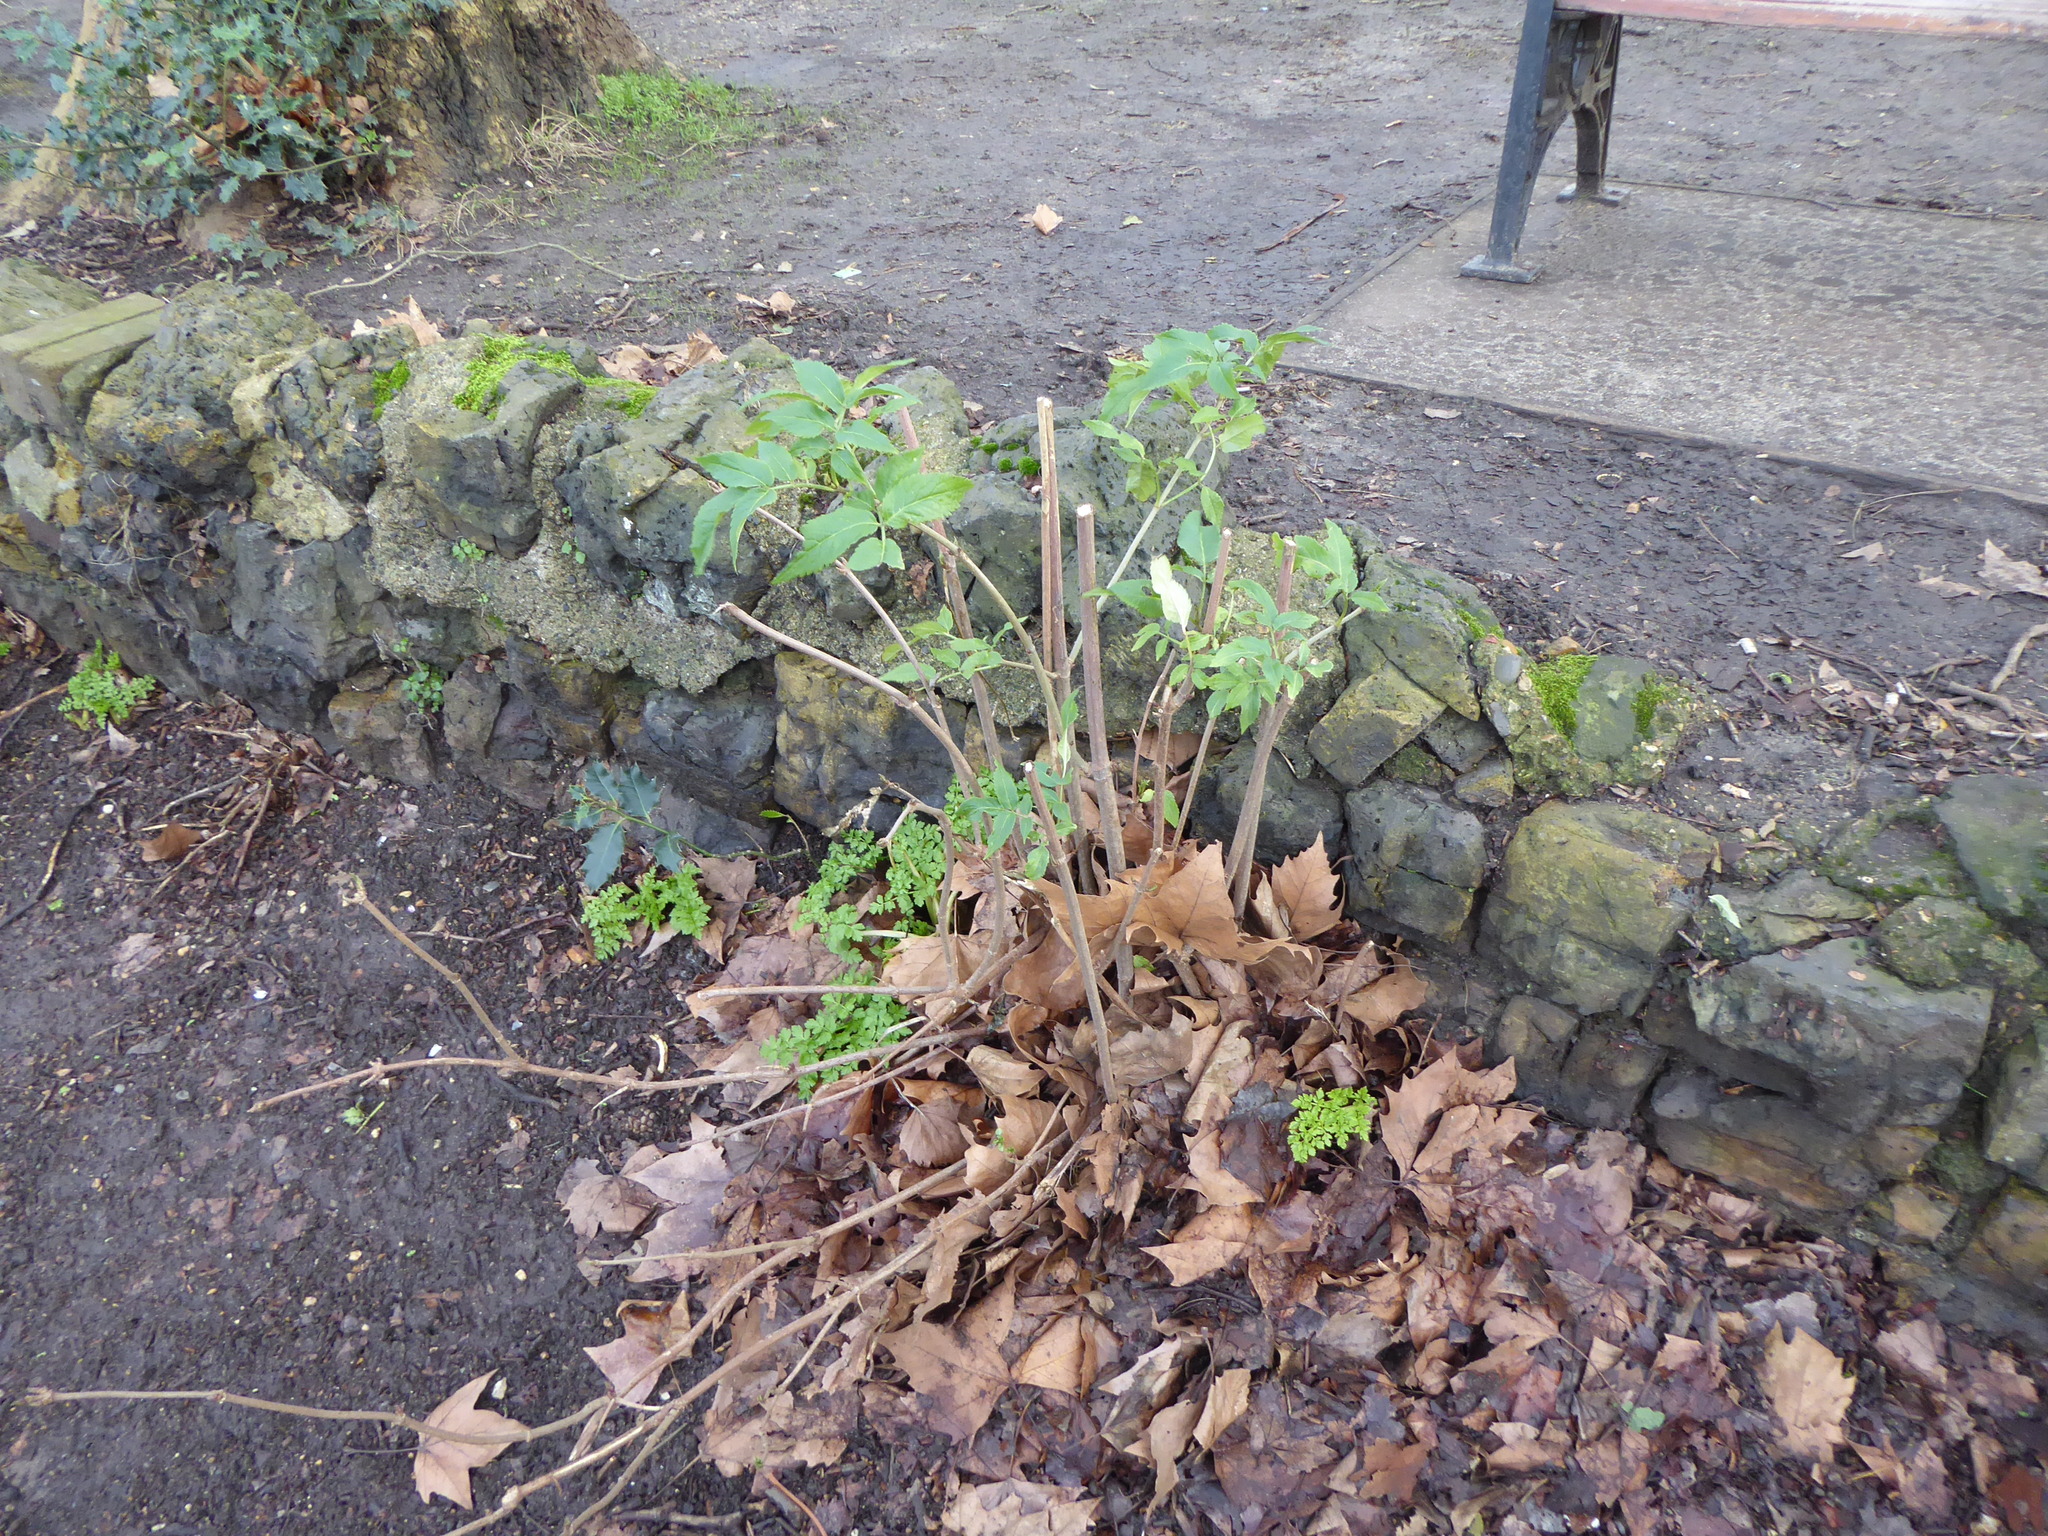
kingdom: Plantae
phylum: Tracheophyta
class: Magnoliopsida
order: Dipsacales
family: Viburnaceae
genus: Sambucus
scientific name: Sambucus nigra
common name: Elder
